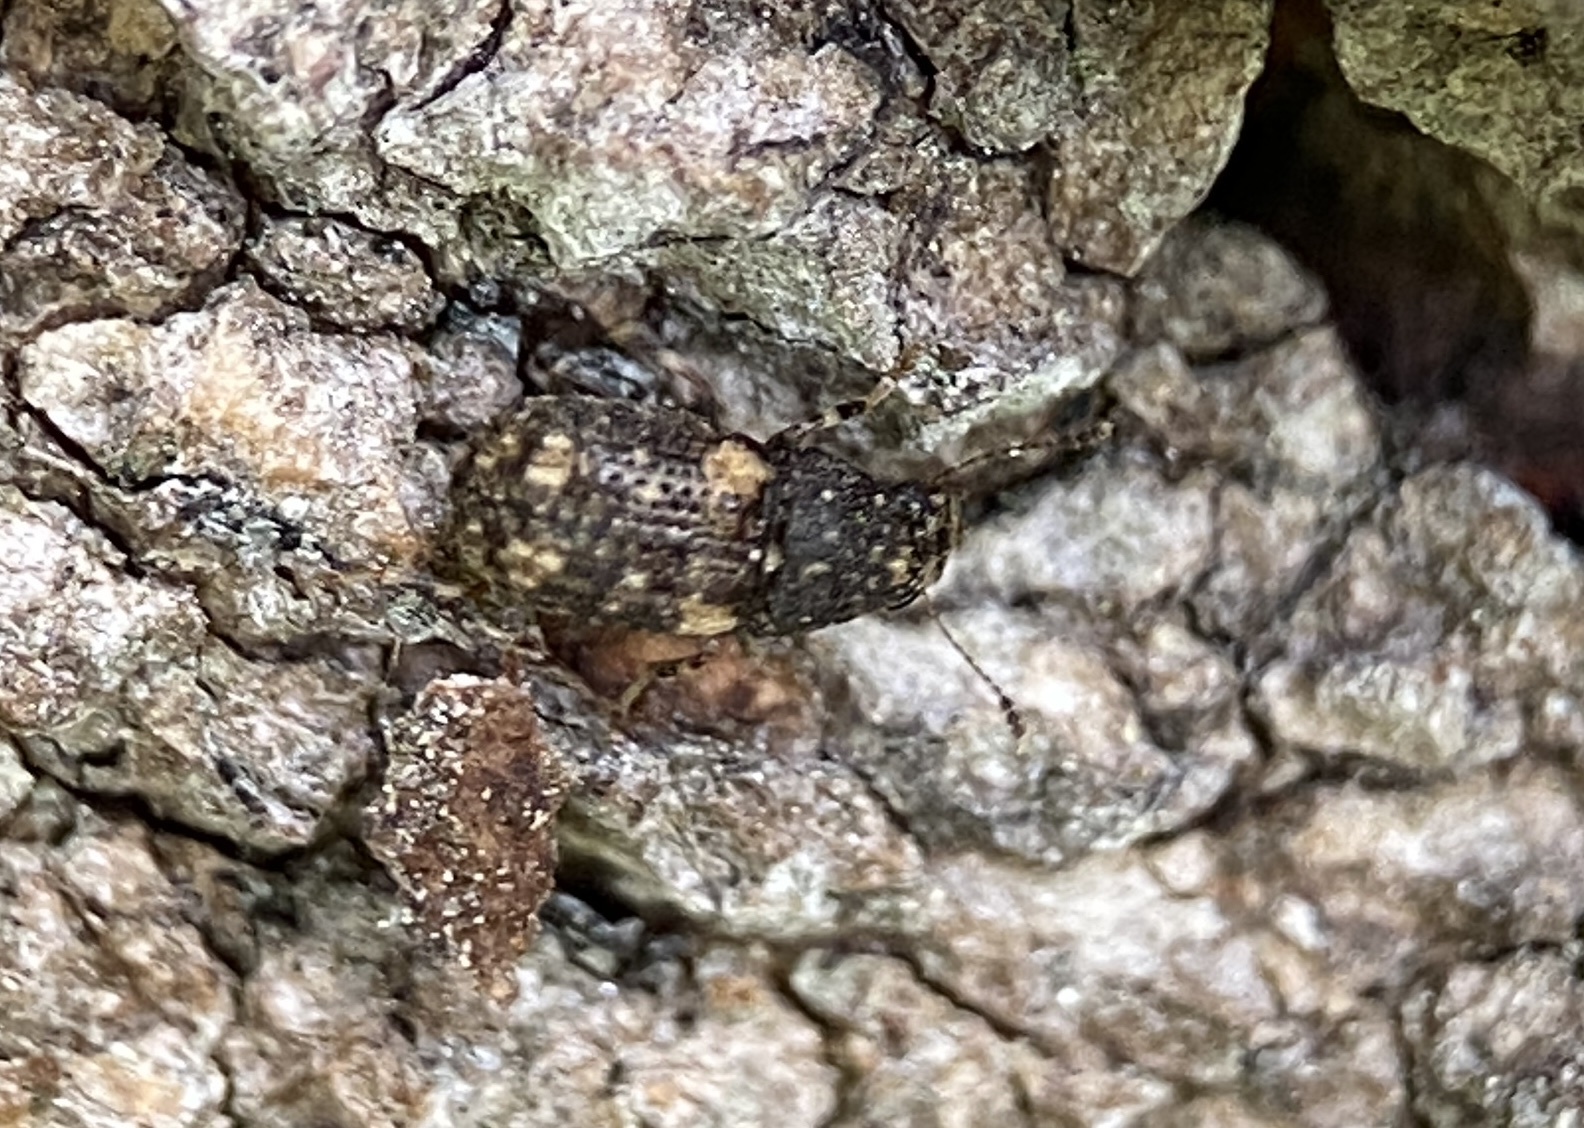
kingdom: Animalia
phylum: Arthropoda
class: Insecta
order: Coleoptera
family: Anthribidae
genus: Brachycorynus
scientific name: Brachycorynus rectus
